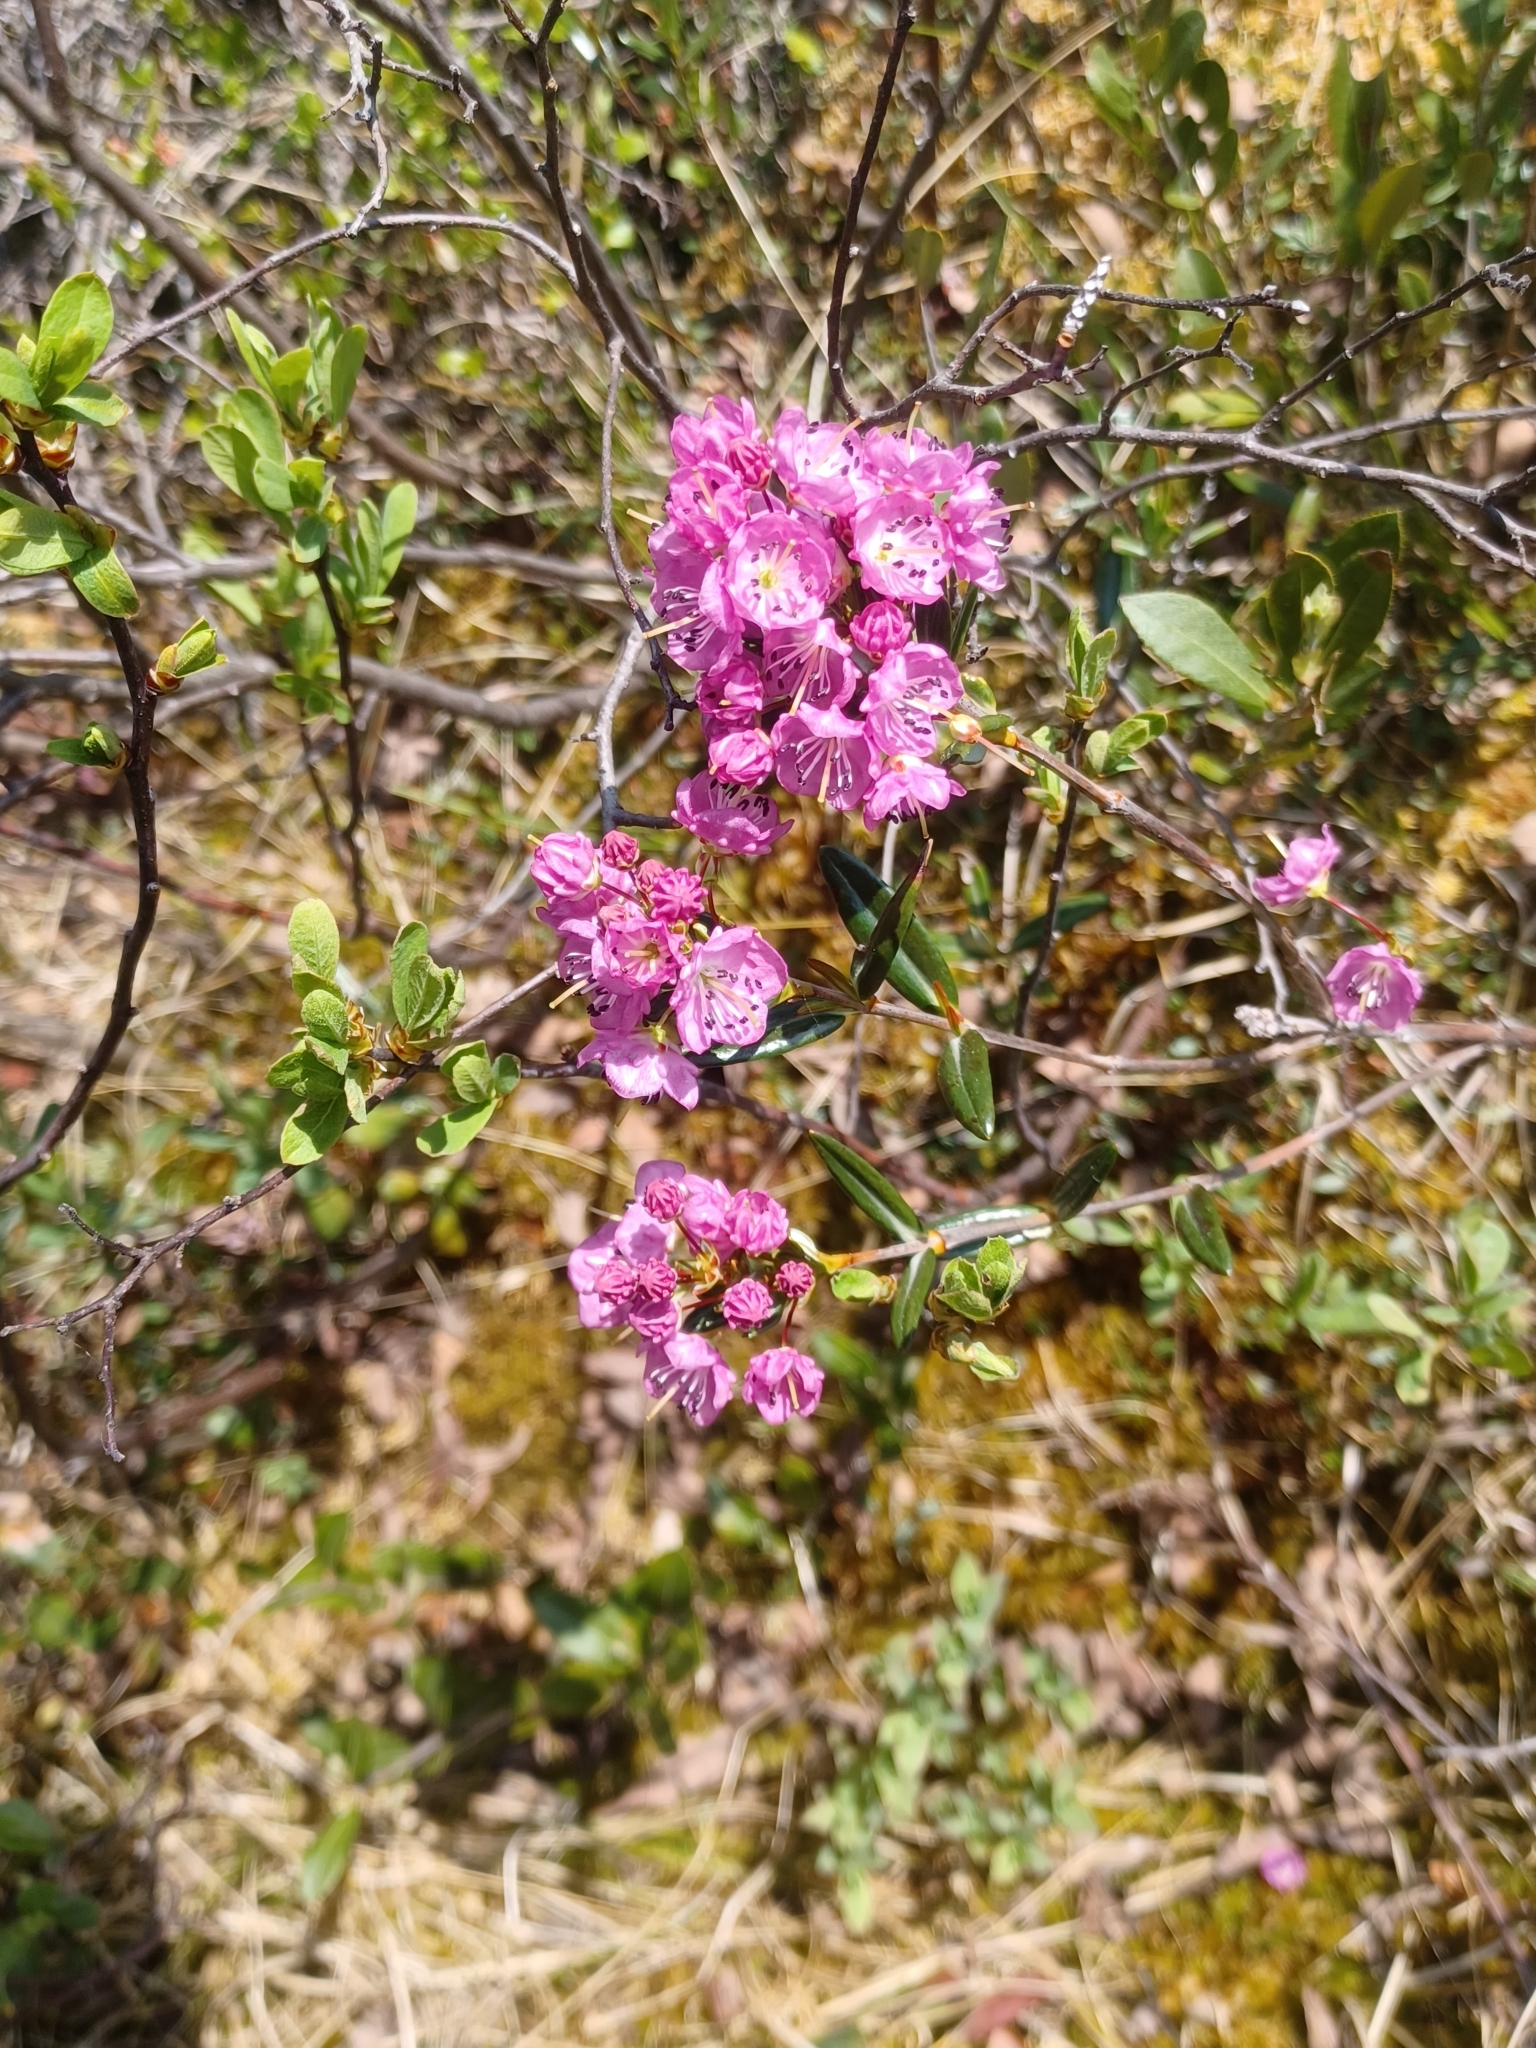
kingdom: Plantae
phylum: Tracheophyta
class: Magnoliopsida
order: Ericales
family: Ericaceae
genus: Kalmia
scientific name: Kalmia polifolia
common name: Bog-laurel
